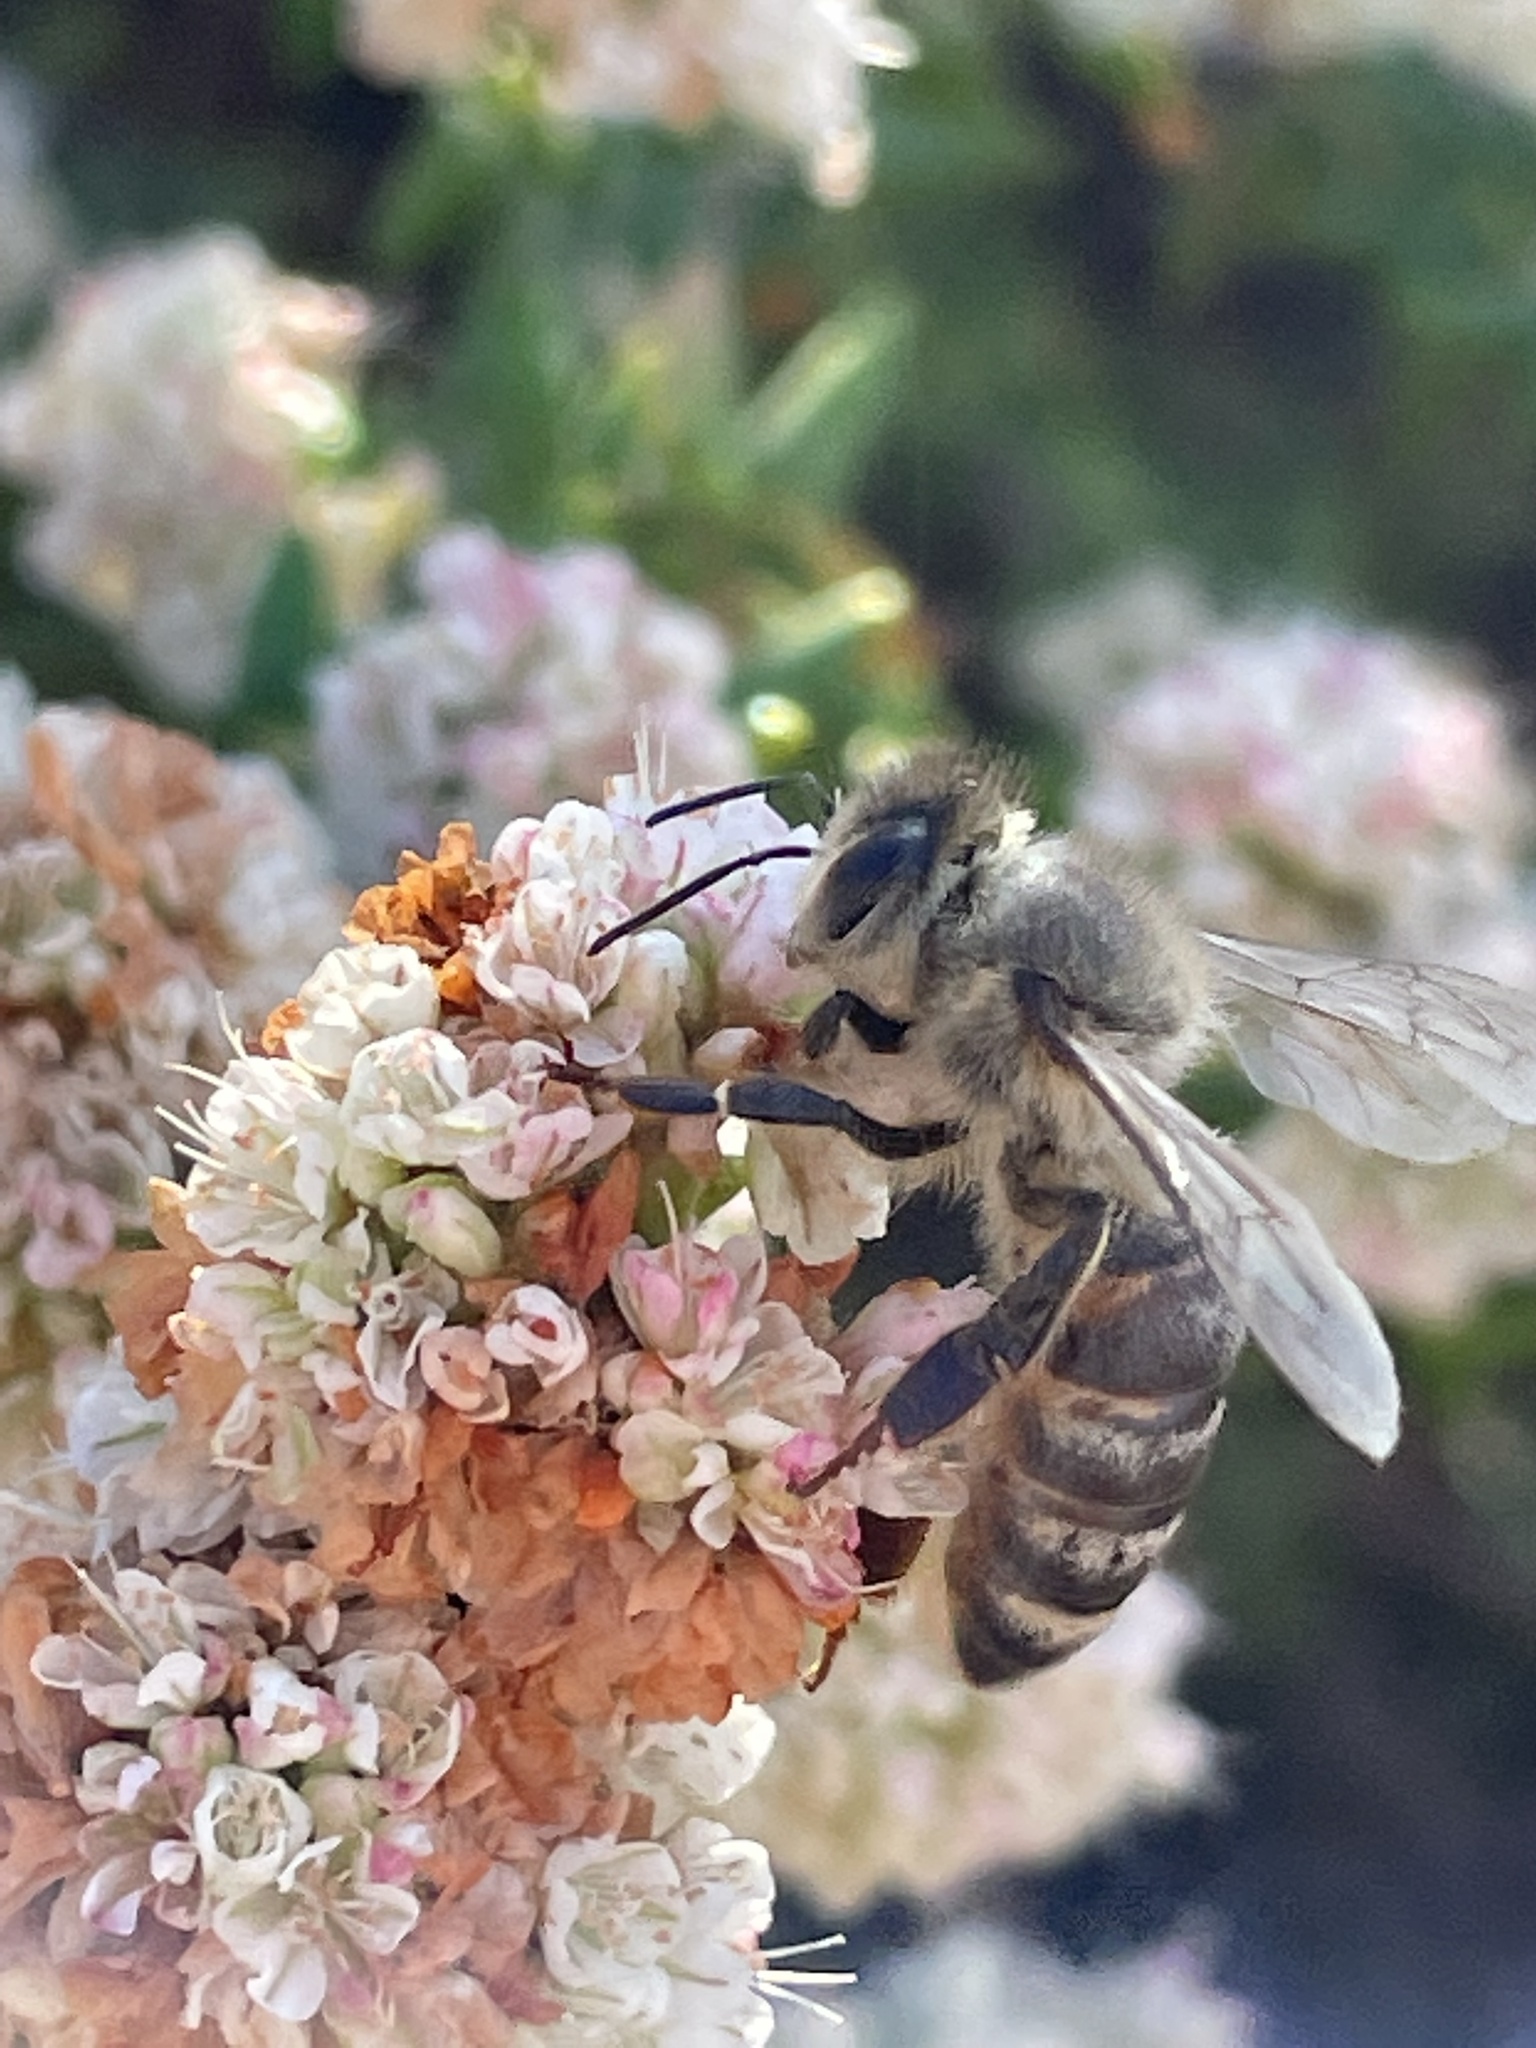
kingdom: Animalia
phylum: Arthropoda
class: Insecta
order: Hymenoptera
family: Apidae
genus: Apis
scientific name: Apis mellifera
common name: Honey bee
